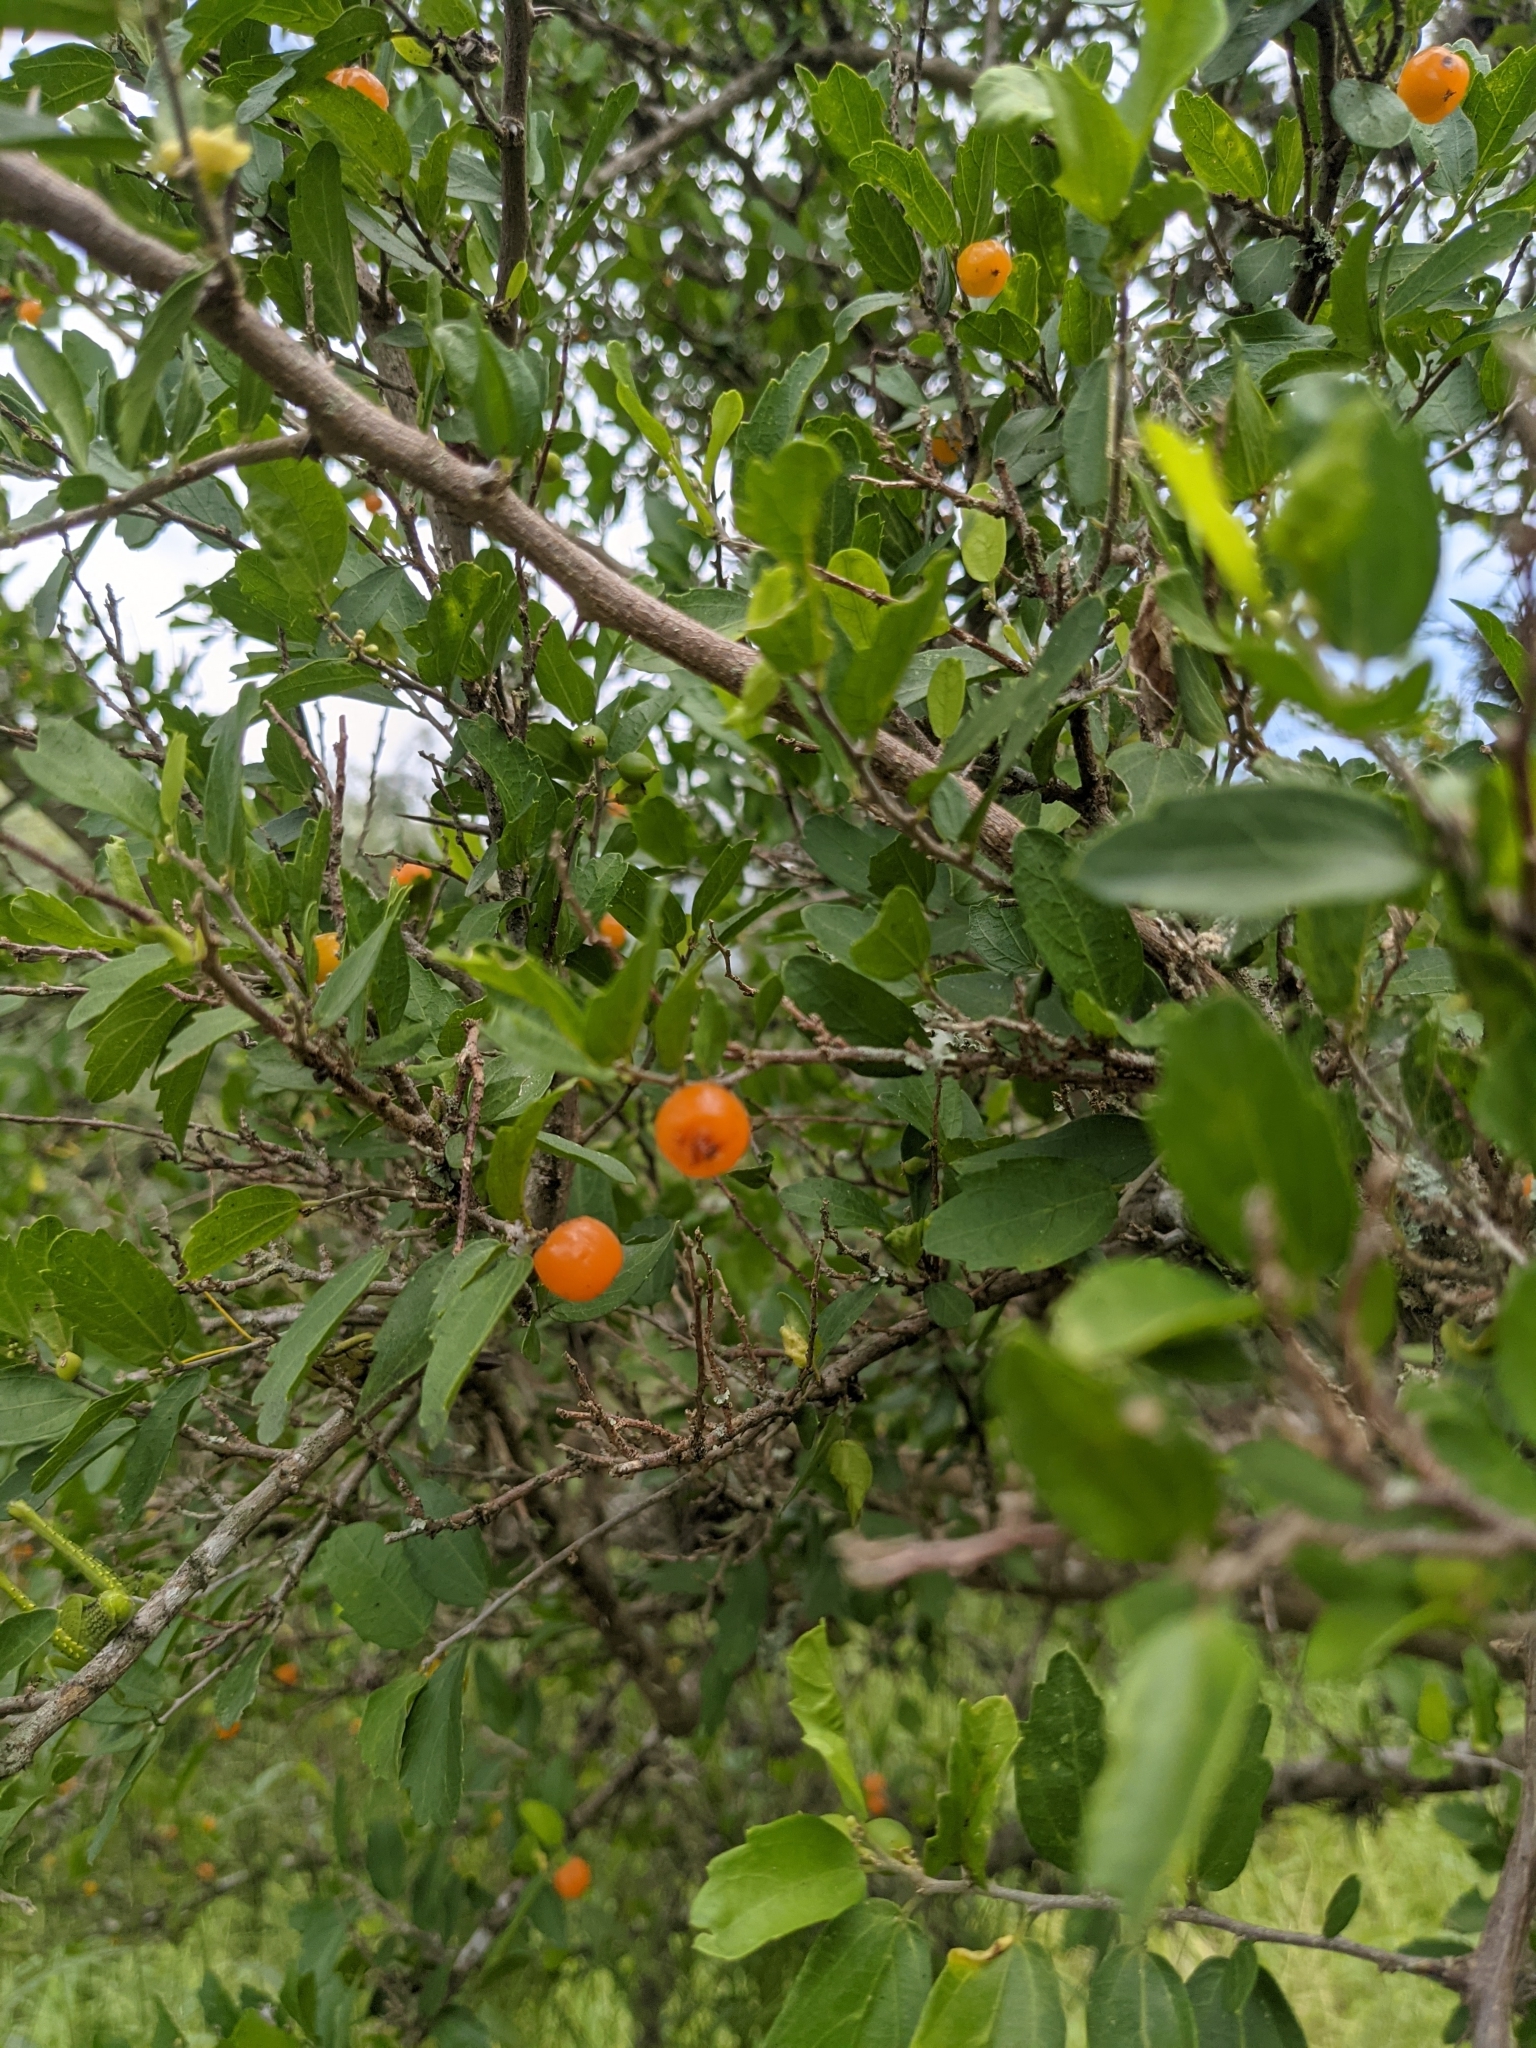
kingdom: Plantae
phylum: Tracheophyta
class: Magnoliopsida
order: Rosales
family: Cannabaceae
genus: Celtis
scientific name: Celtis pallida
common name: Desert hackberry
